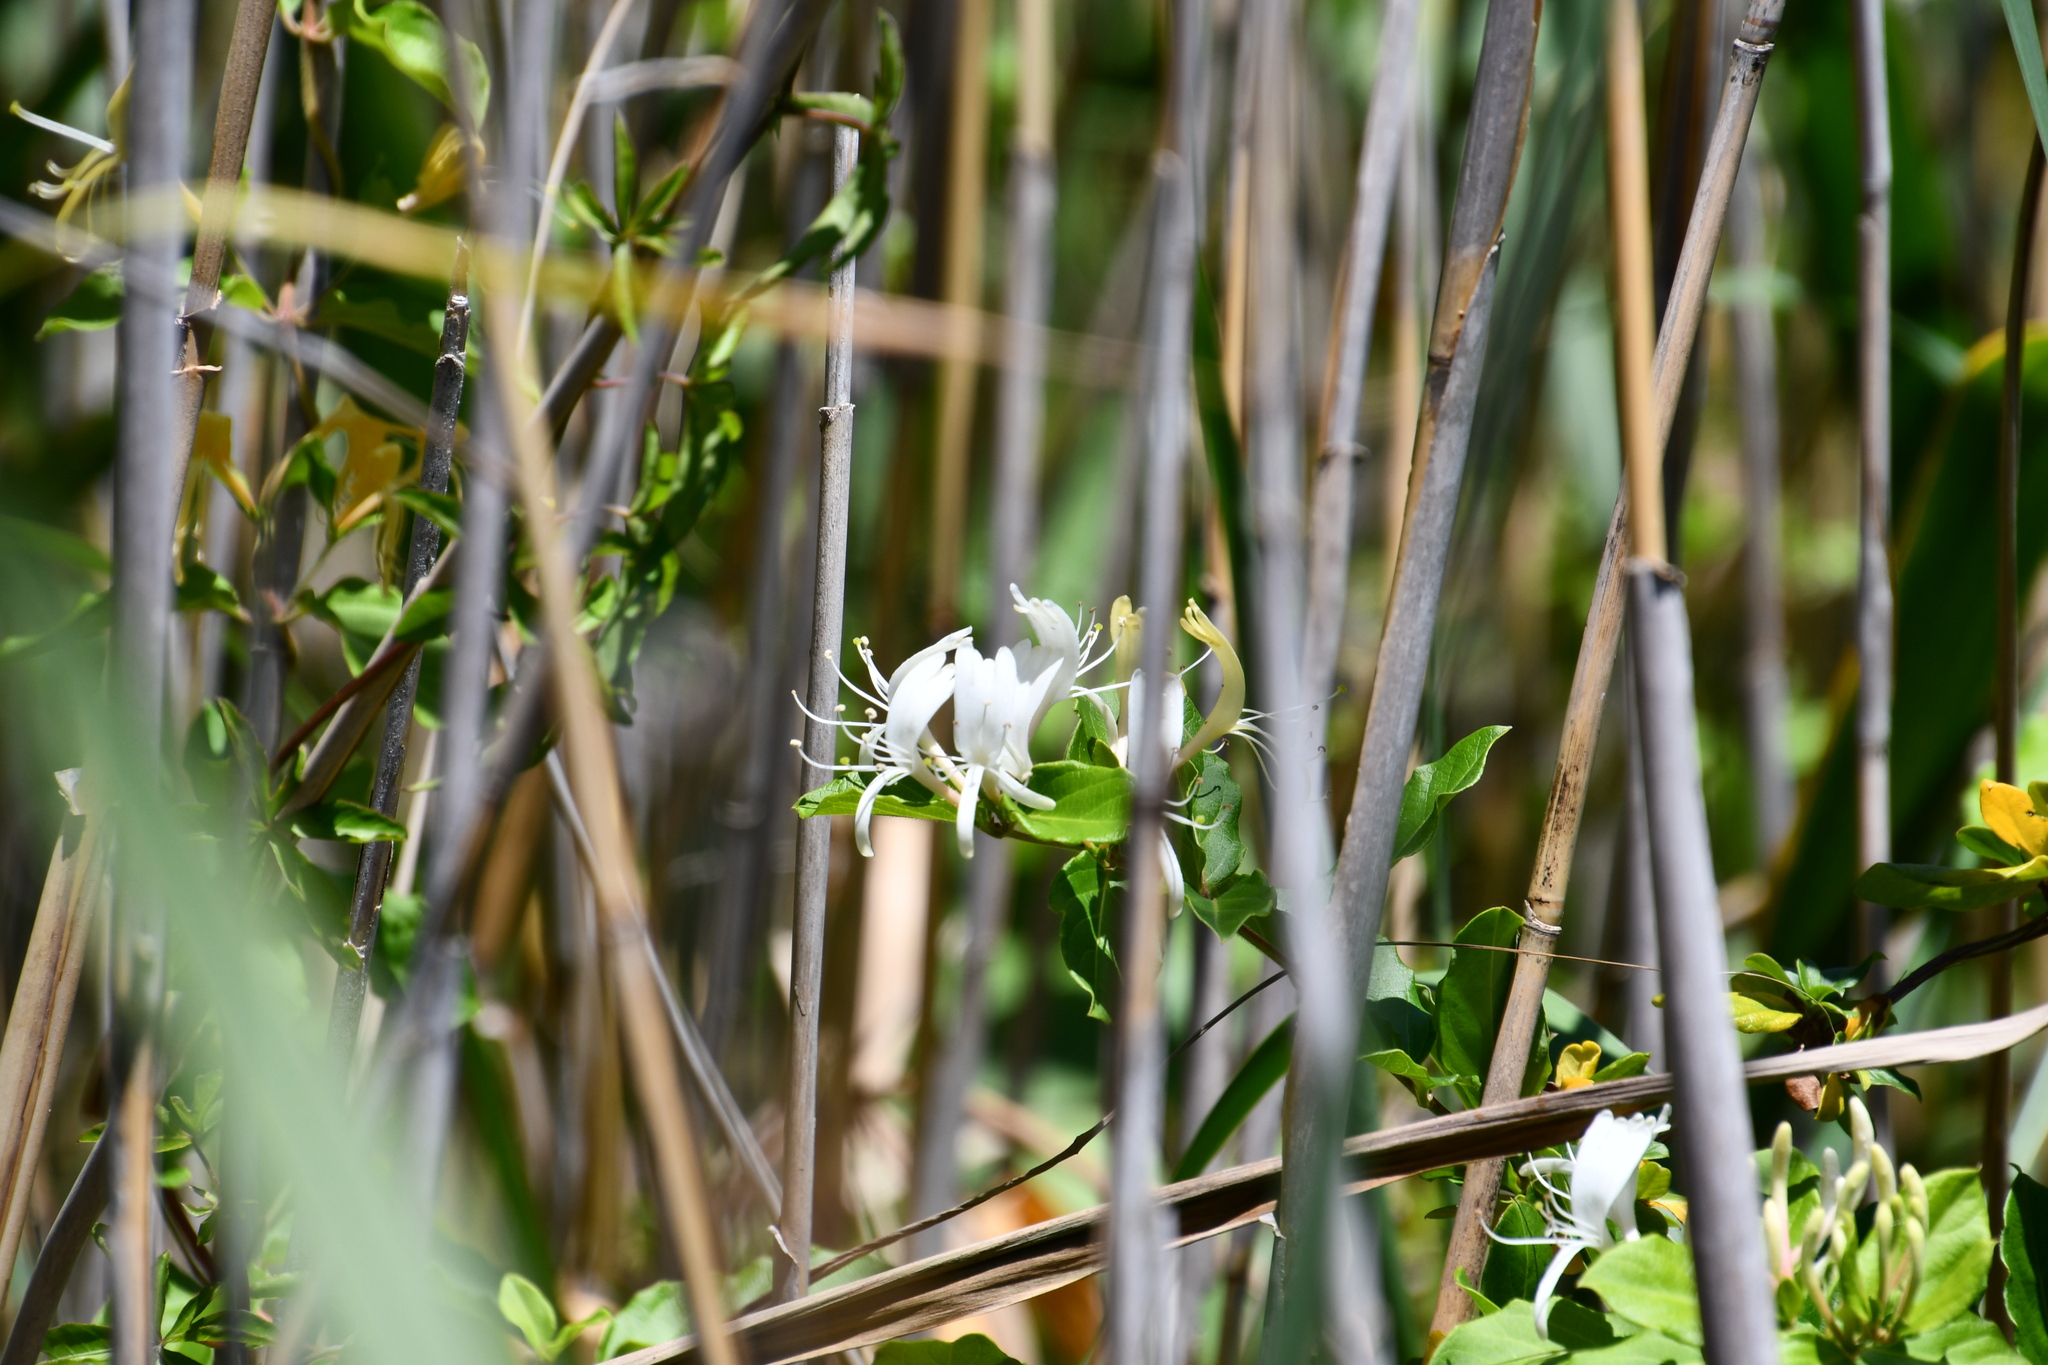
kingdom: Plantae
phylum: Tracheophyta
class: Magnoliopsida
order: Dipsacales
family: Caprifoliaceae
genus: Lonicera
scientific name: Lonicera japonica
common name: Japanese honeysuckle
